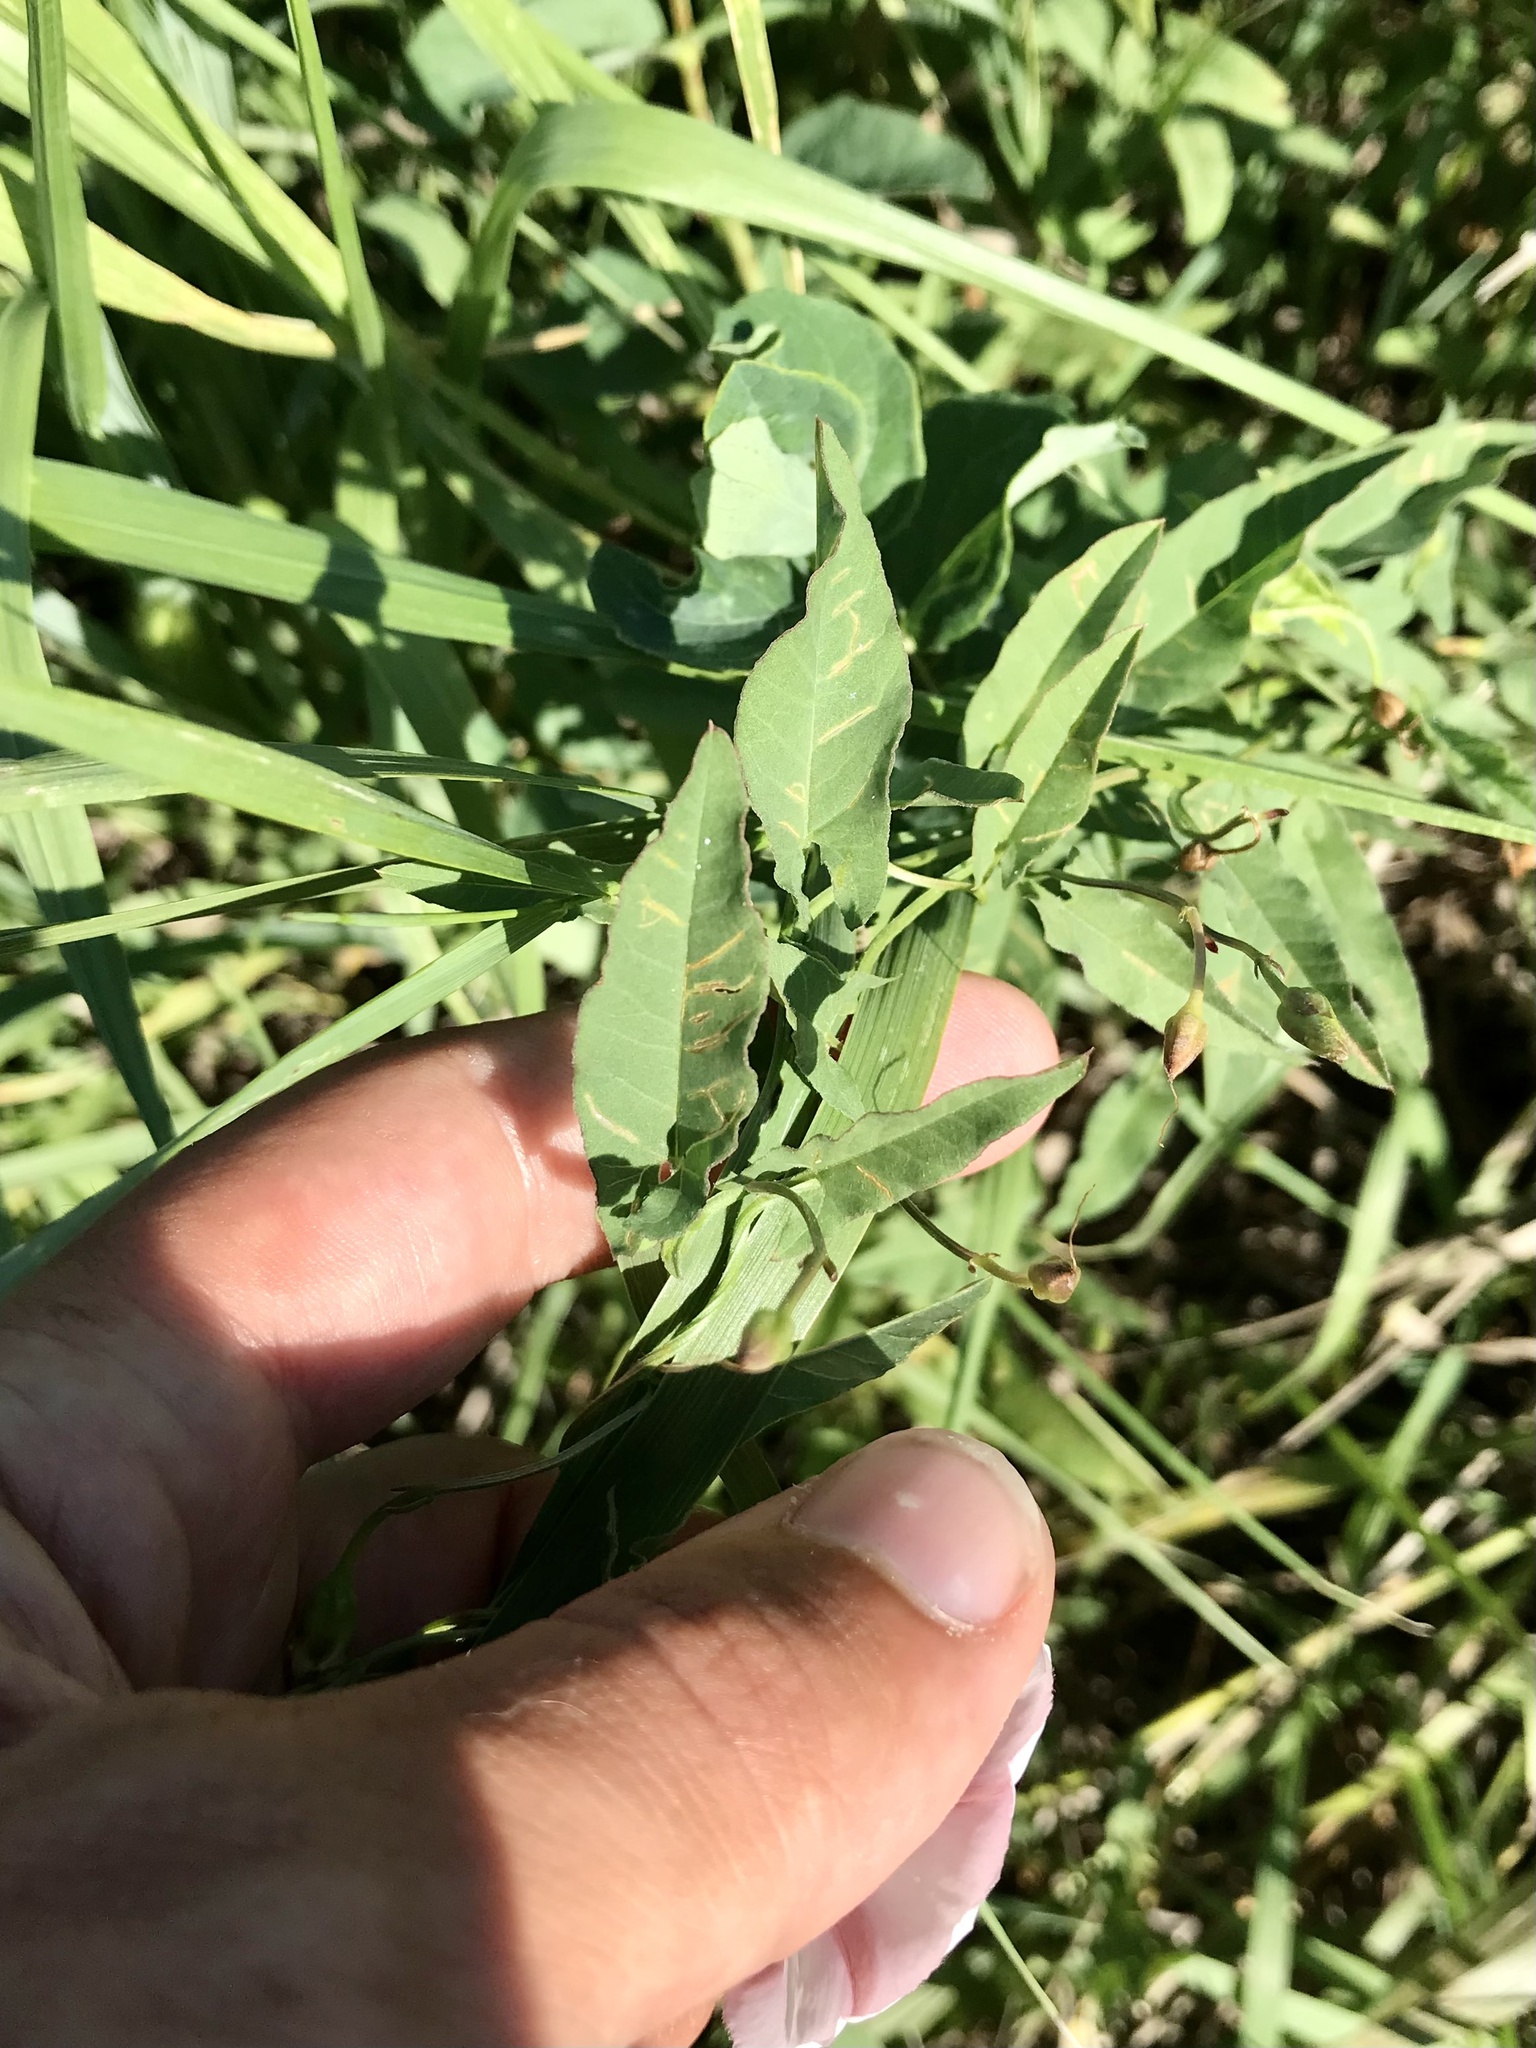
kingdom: Plantae
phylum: Tracheophyta
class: Magnoliopsida
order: Solanales
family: Convolvulaceae
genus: Convolvulus
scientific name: Convolvulus arvensis
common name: Field bindweed
